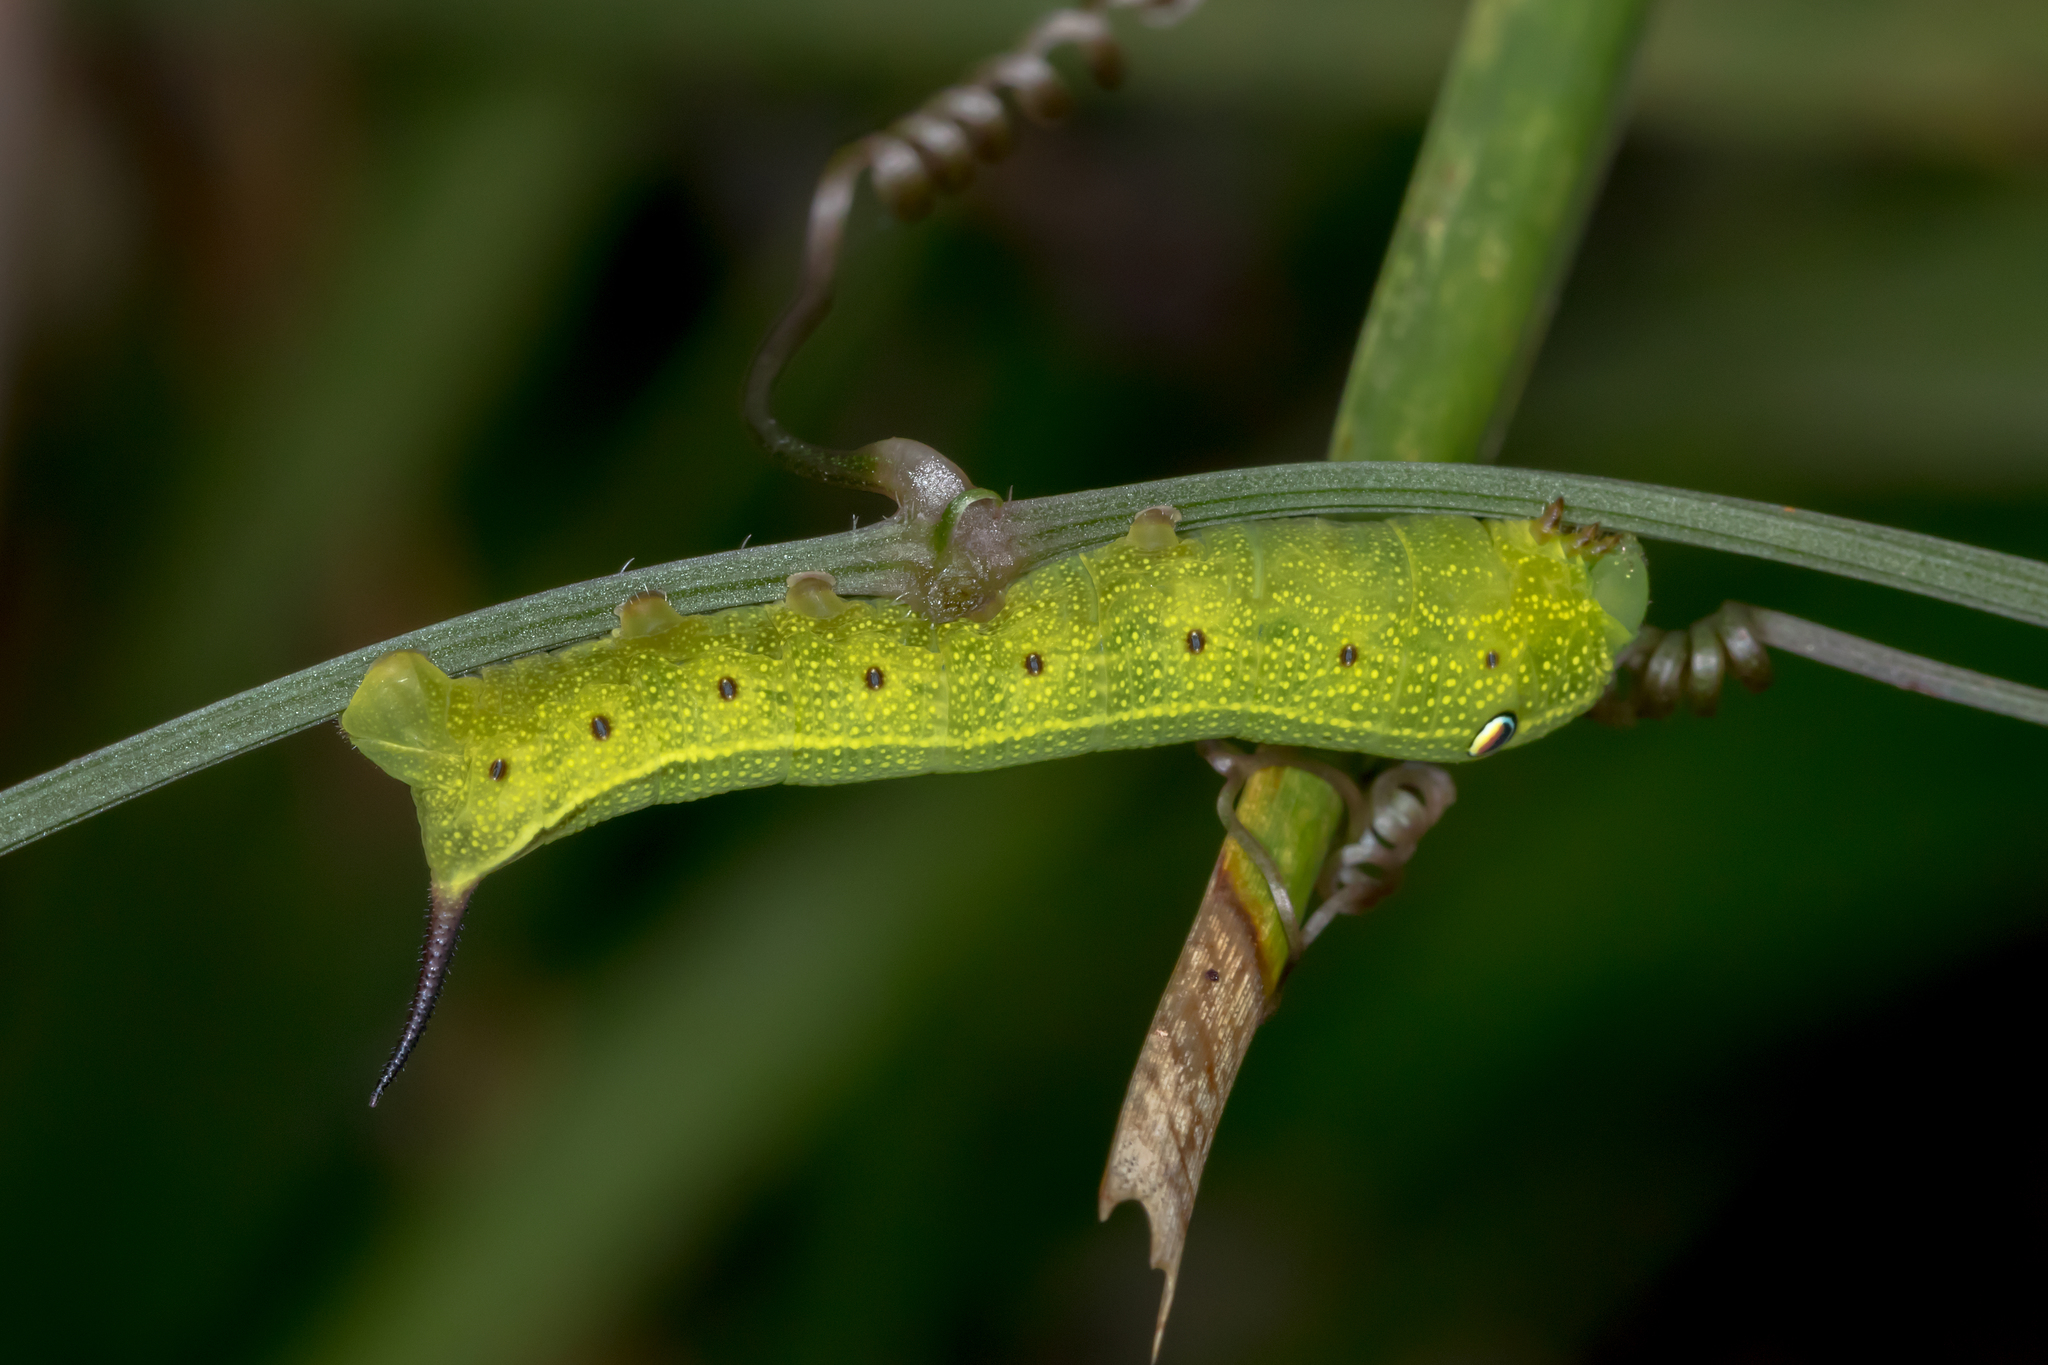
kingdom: Animalia
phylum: Arthropoda
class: Insecta
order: Lepidoptera
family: Sphingidae
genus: Theretra
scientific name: Theretra latreillii
